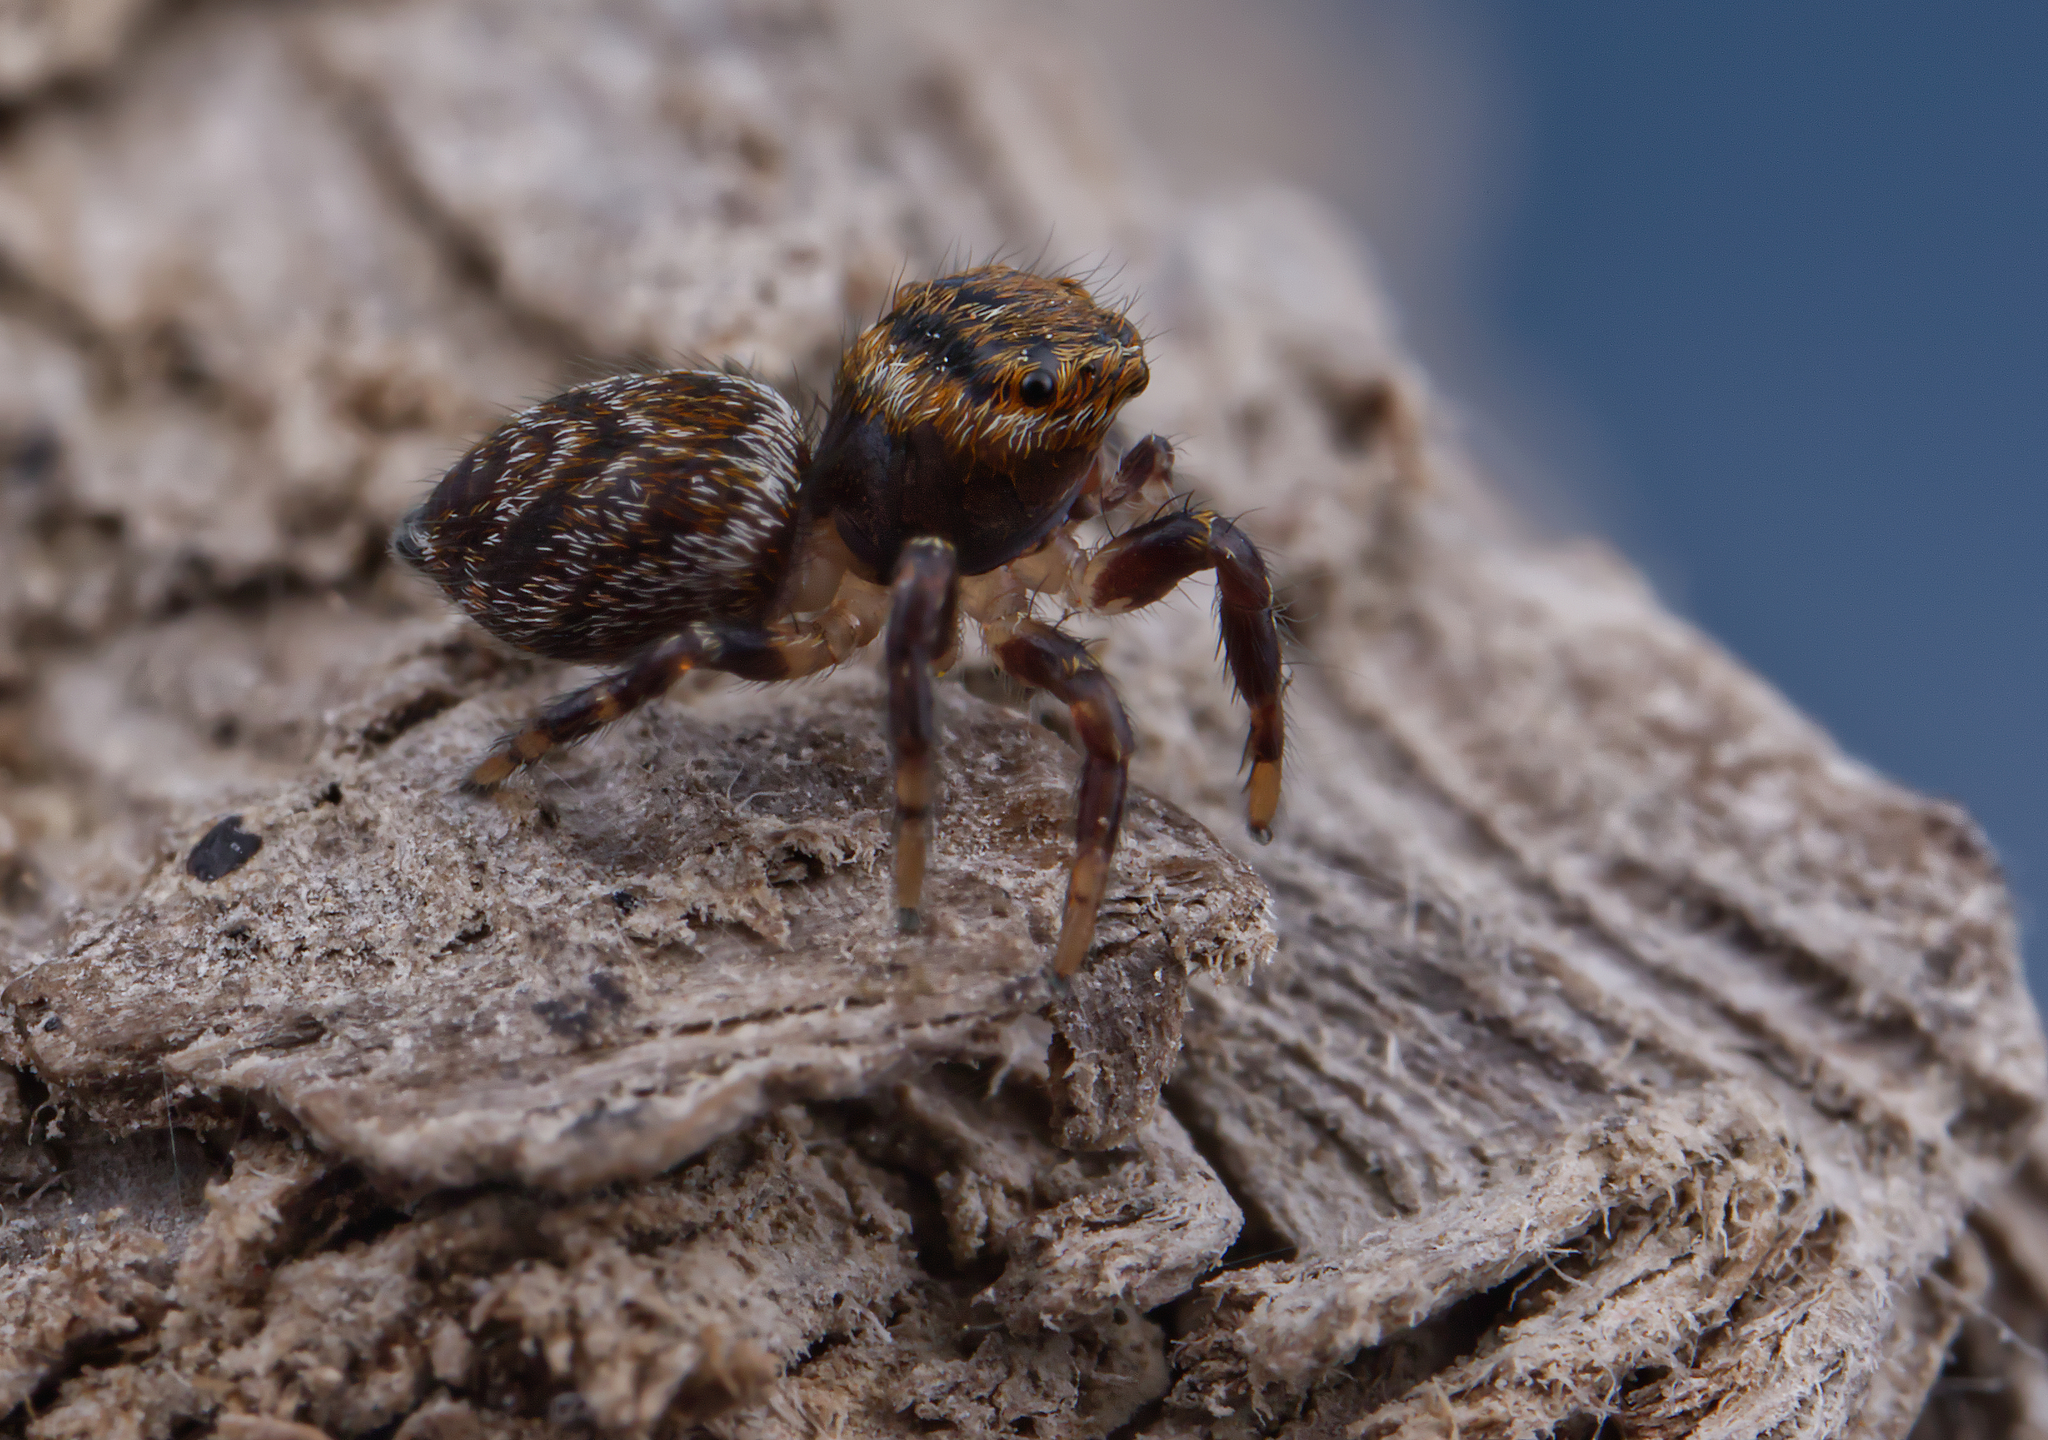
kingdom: Animalia
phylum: Arthropoda
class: Arachnida
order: Araneae
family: Salticidae
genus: Evarcha
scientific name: Evarcha hoyi
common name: Hoy's jumping spider
